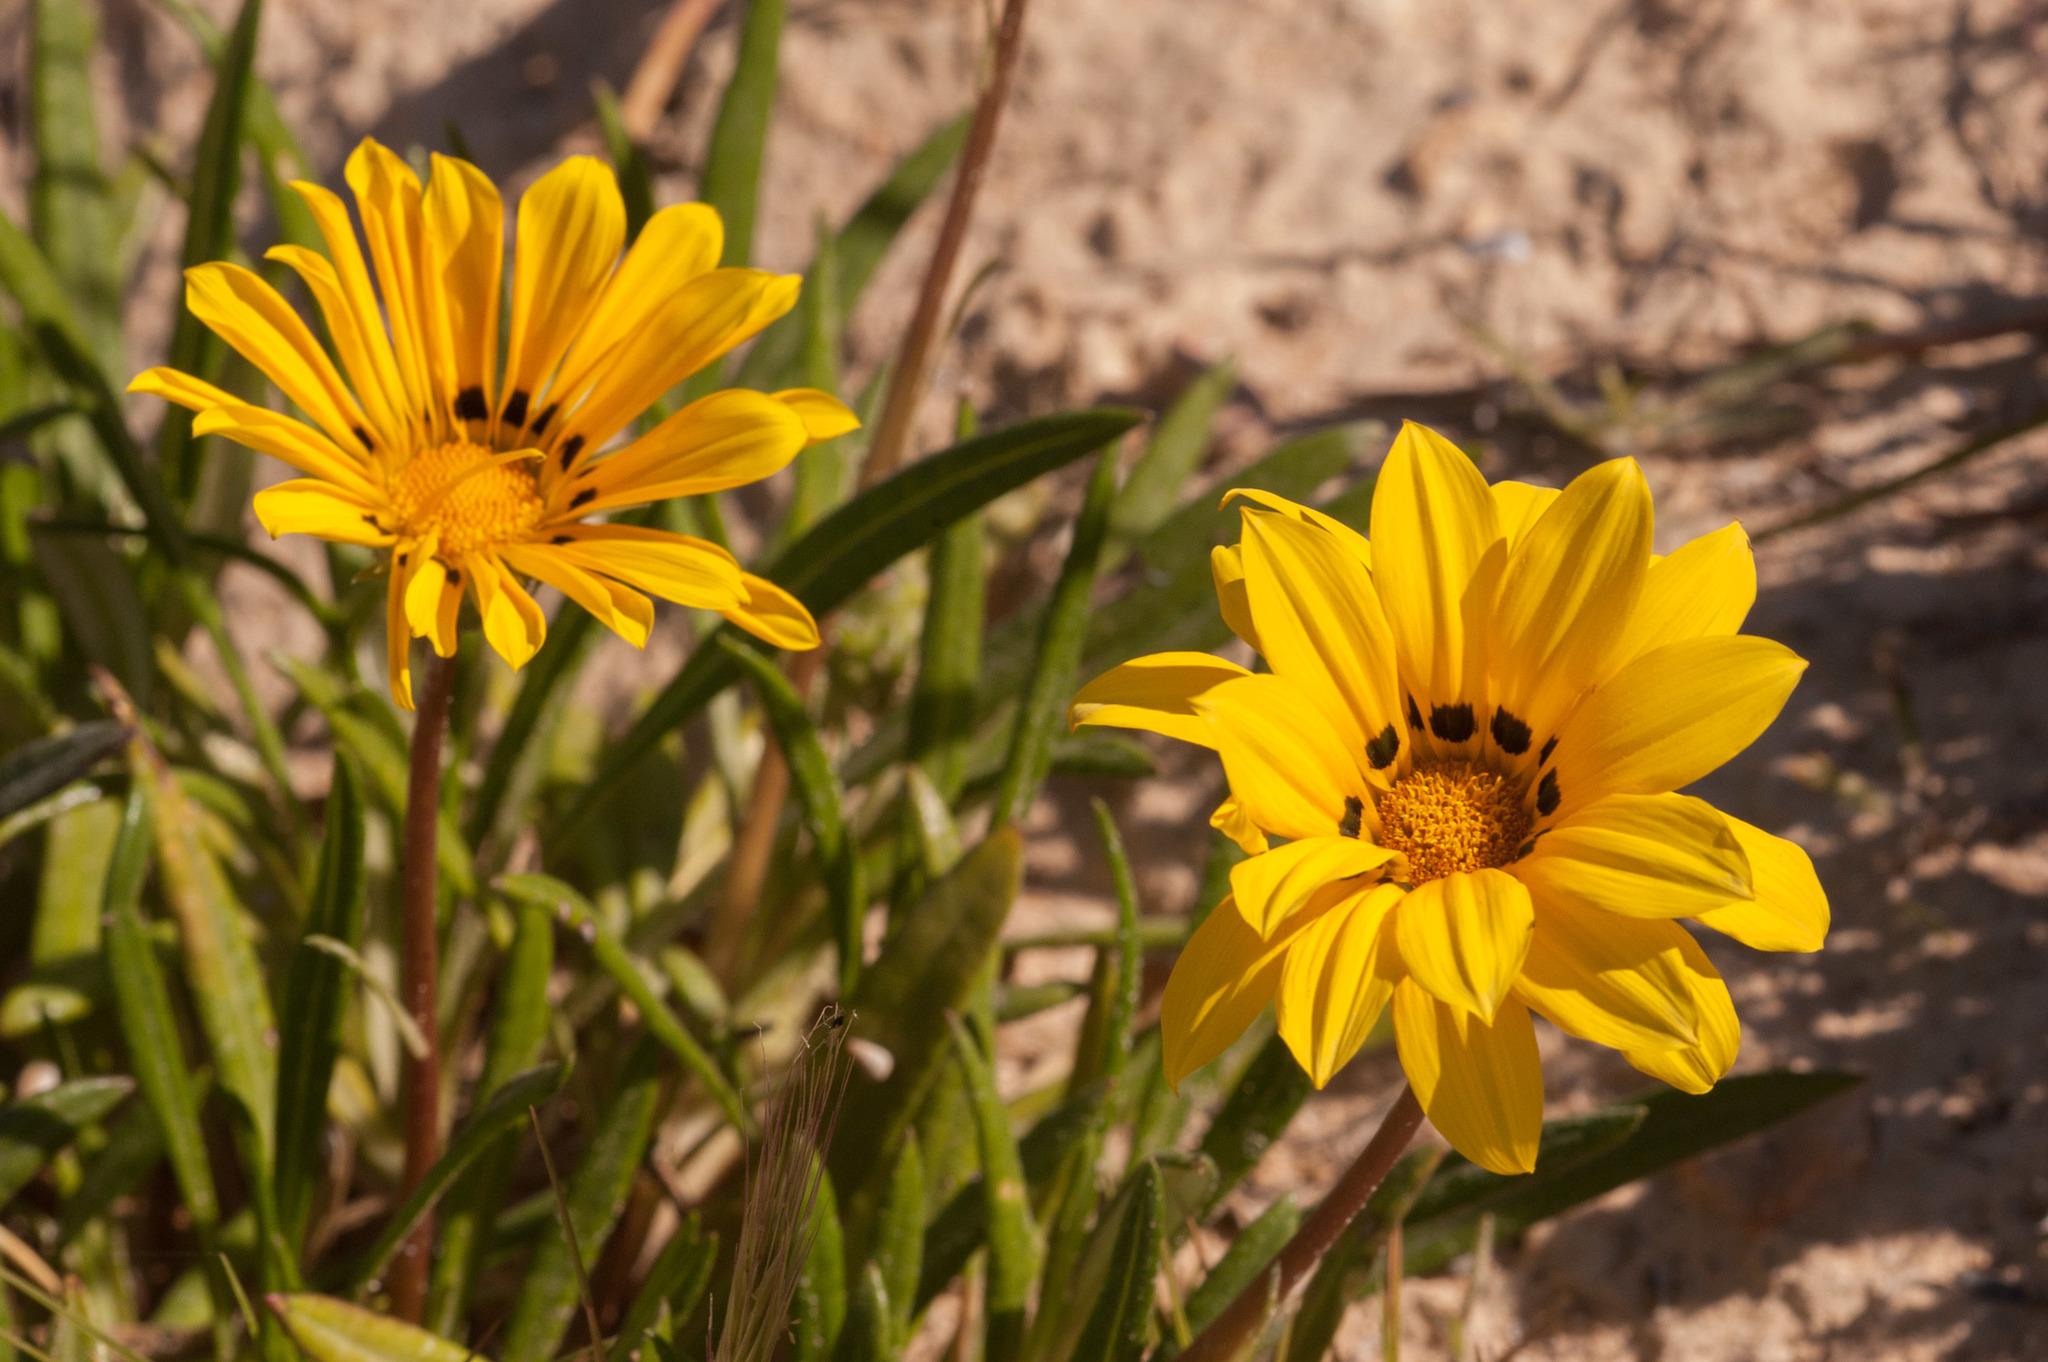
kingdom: Plantae
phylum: Tracheophyta
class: Magnoliopsida
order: Asterales
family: Asteraceae
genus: Gazania
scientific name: Gazania splendens
